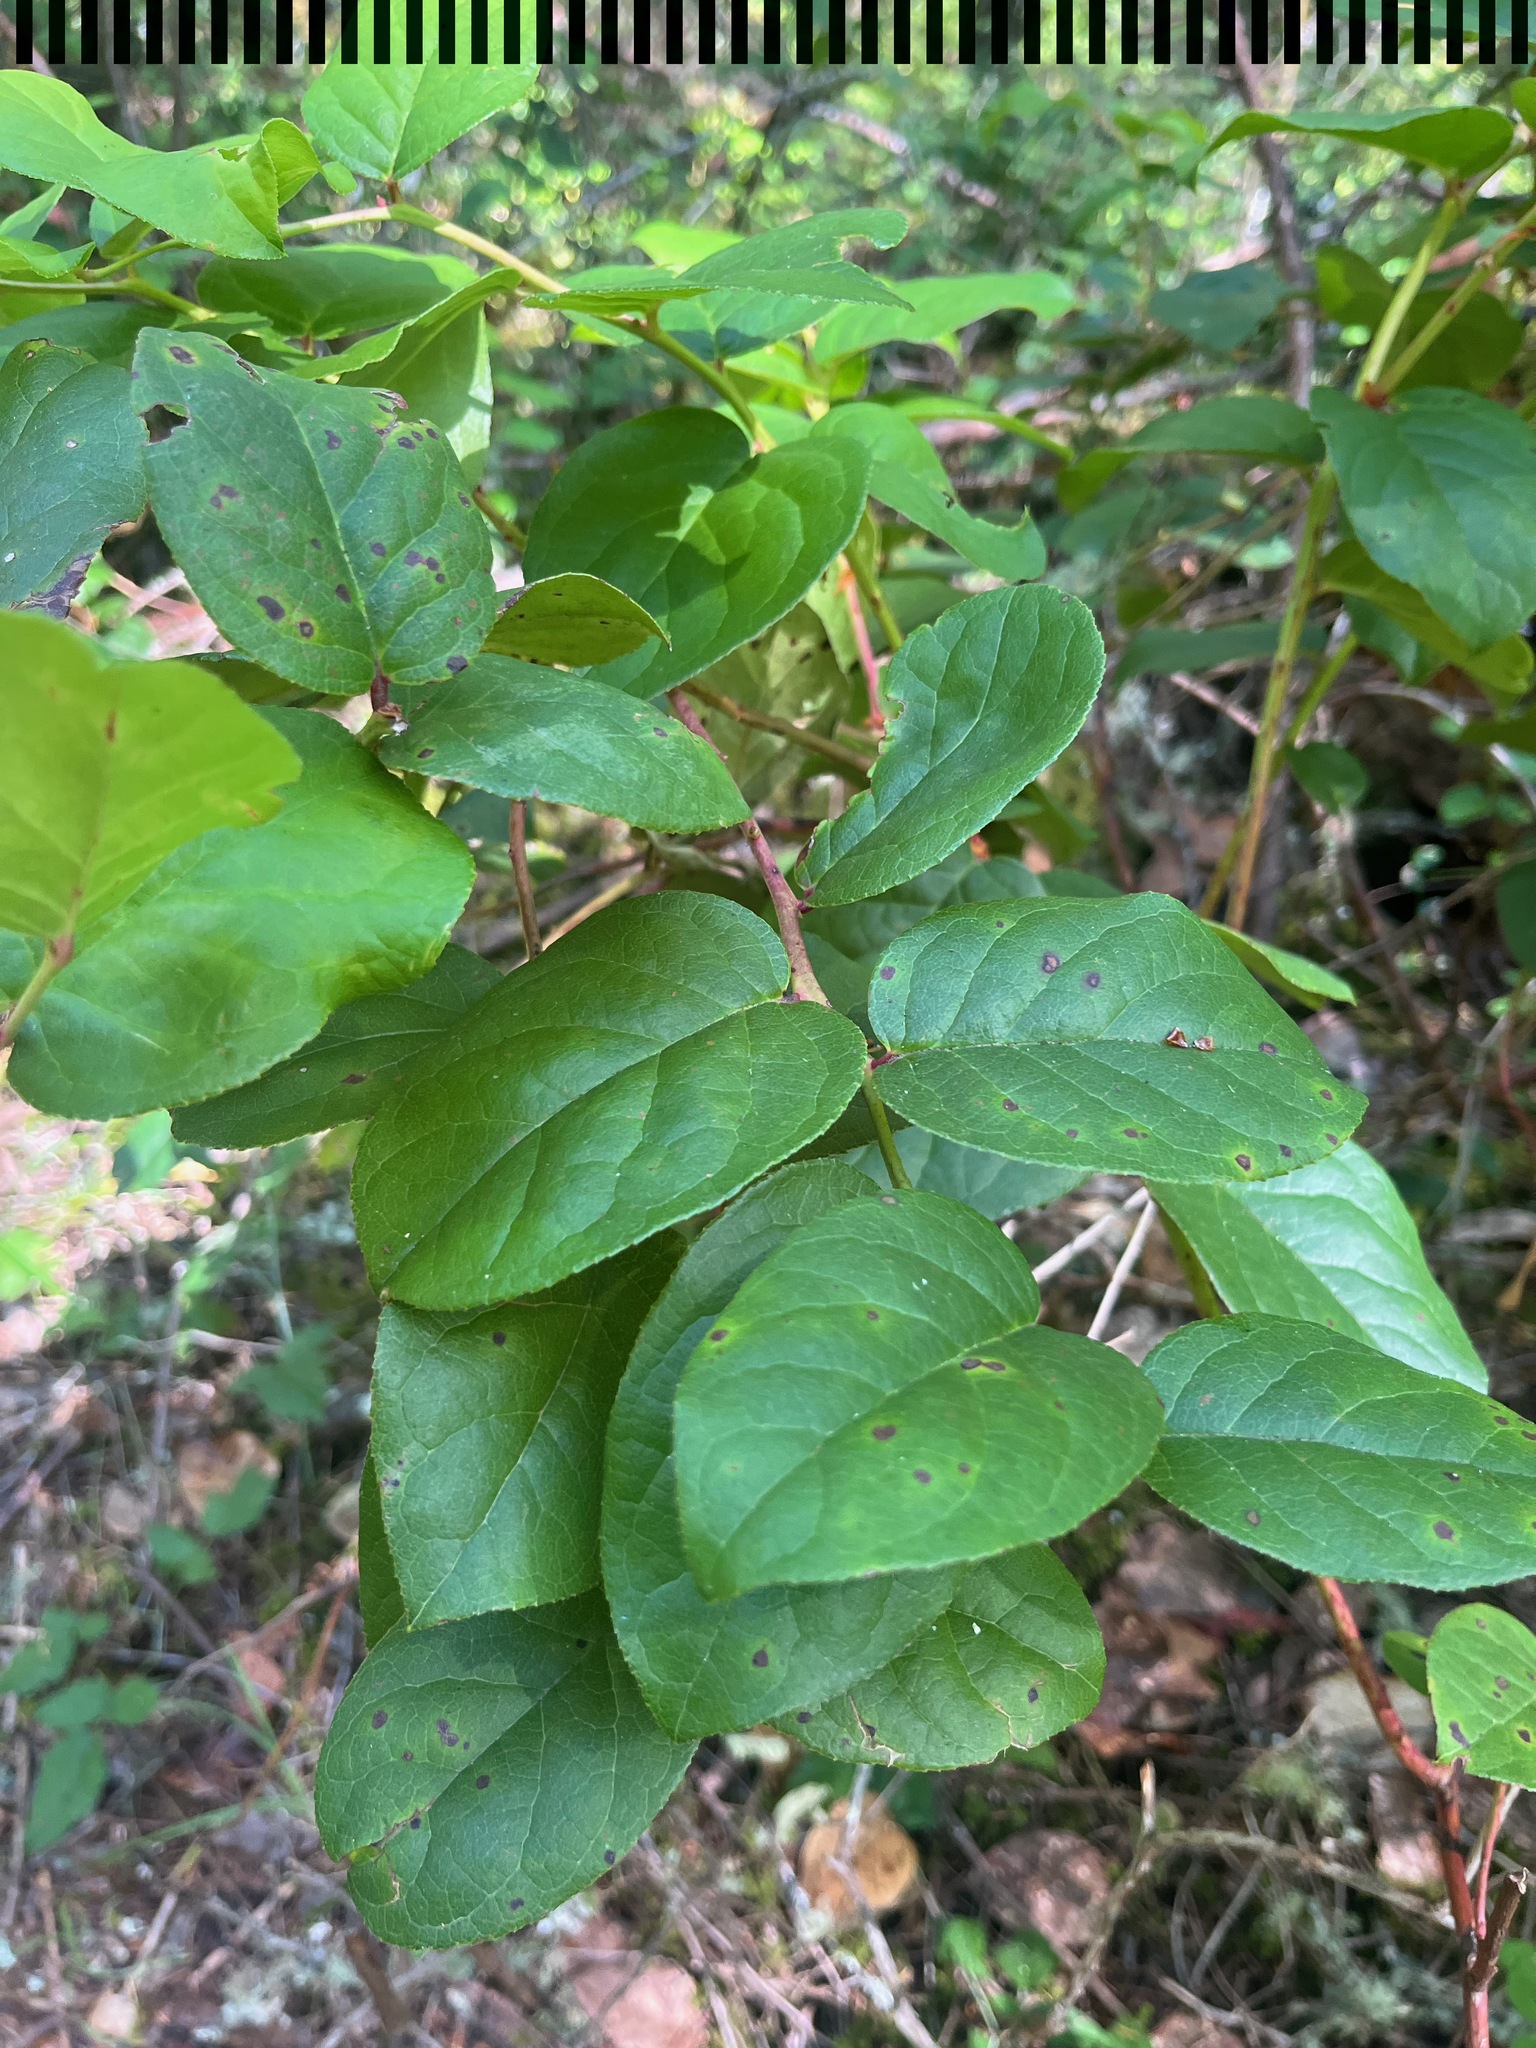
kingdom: Plantae
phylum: Tracheophyta
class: Magnoliopsida
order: Ericales
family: Ericaceae
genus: Gaultheria
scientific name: Gaultheria shallon
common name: Shallon
